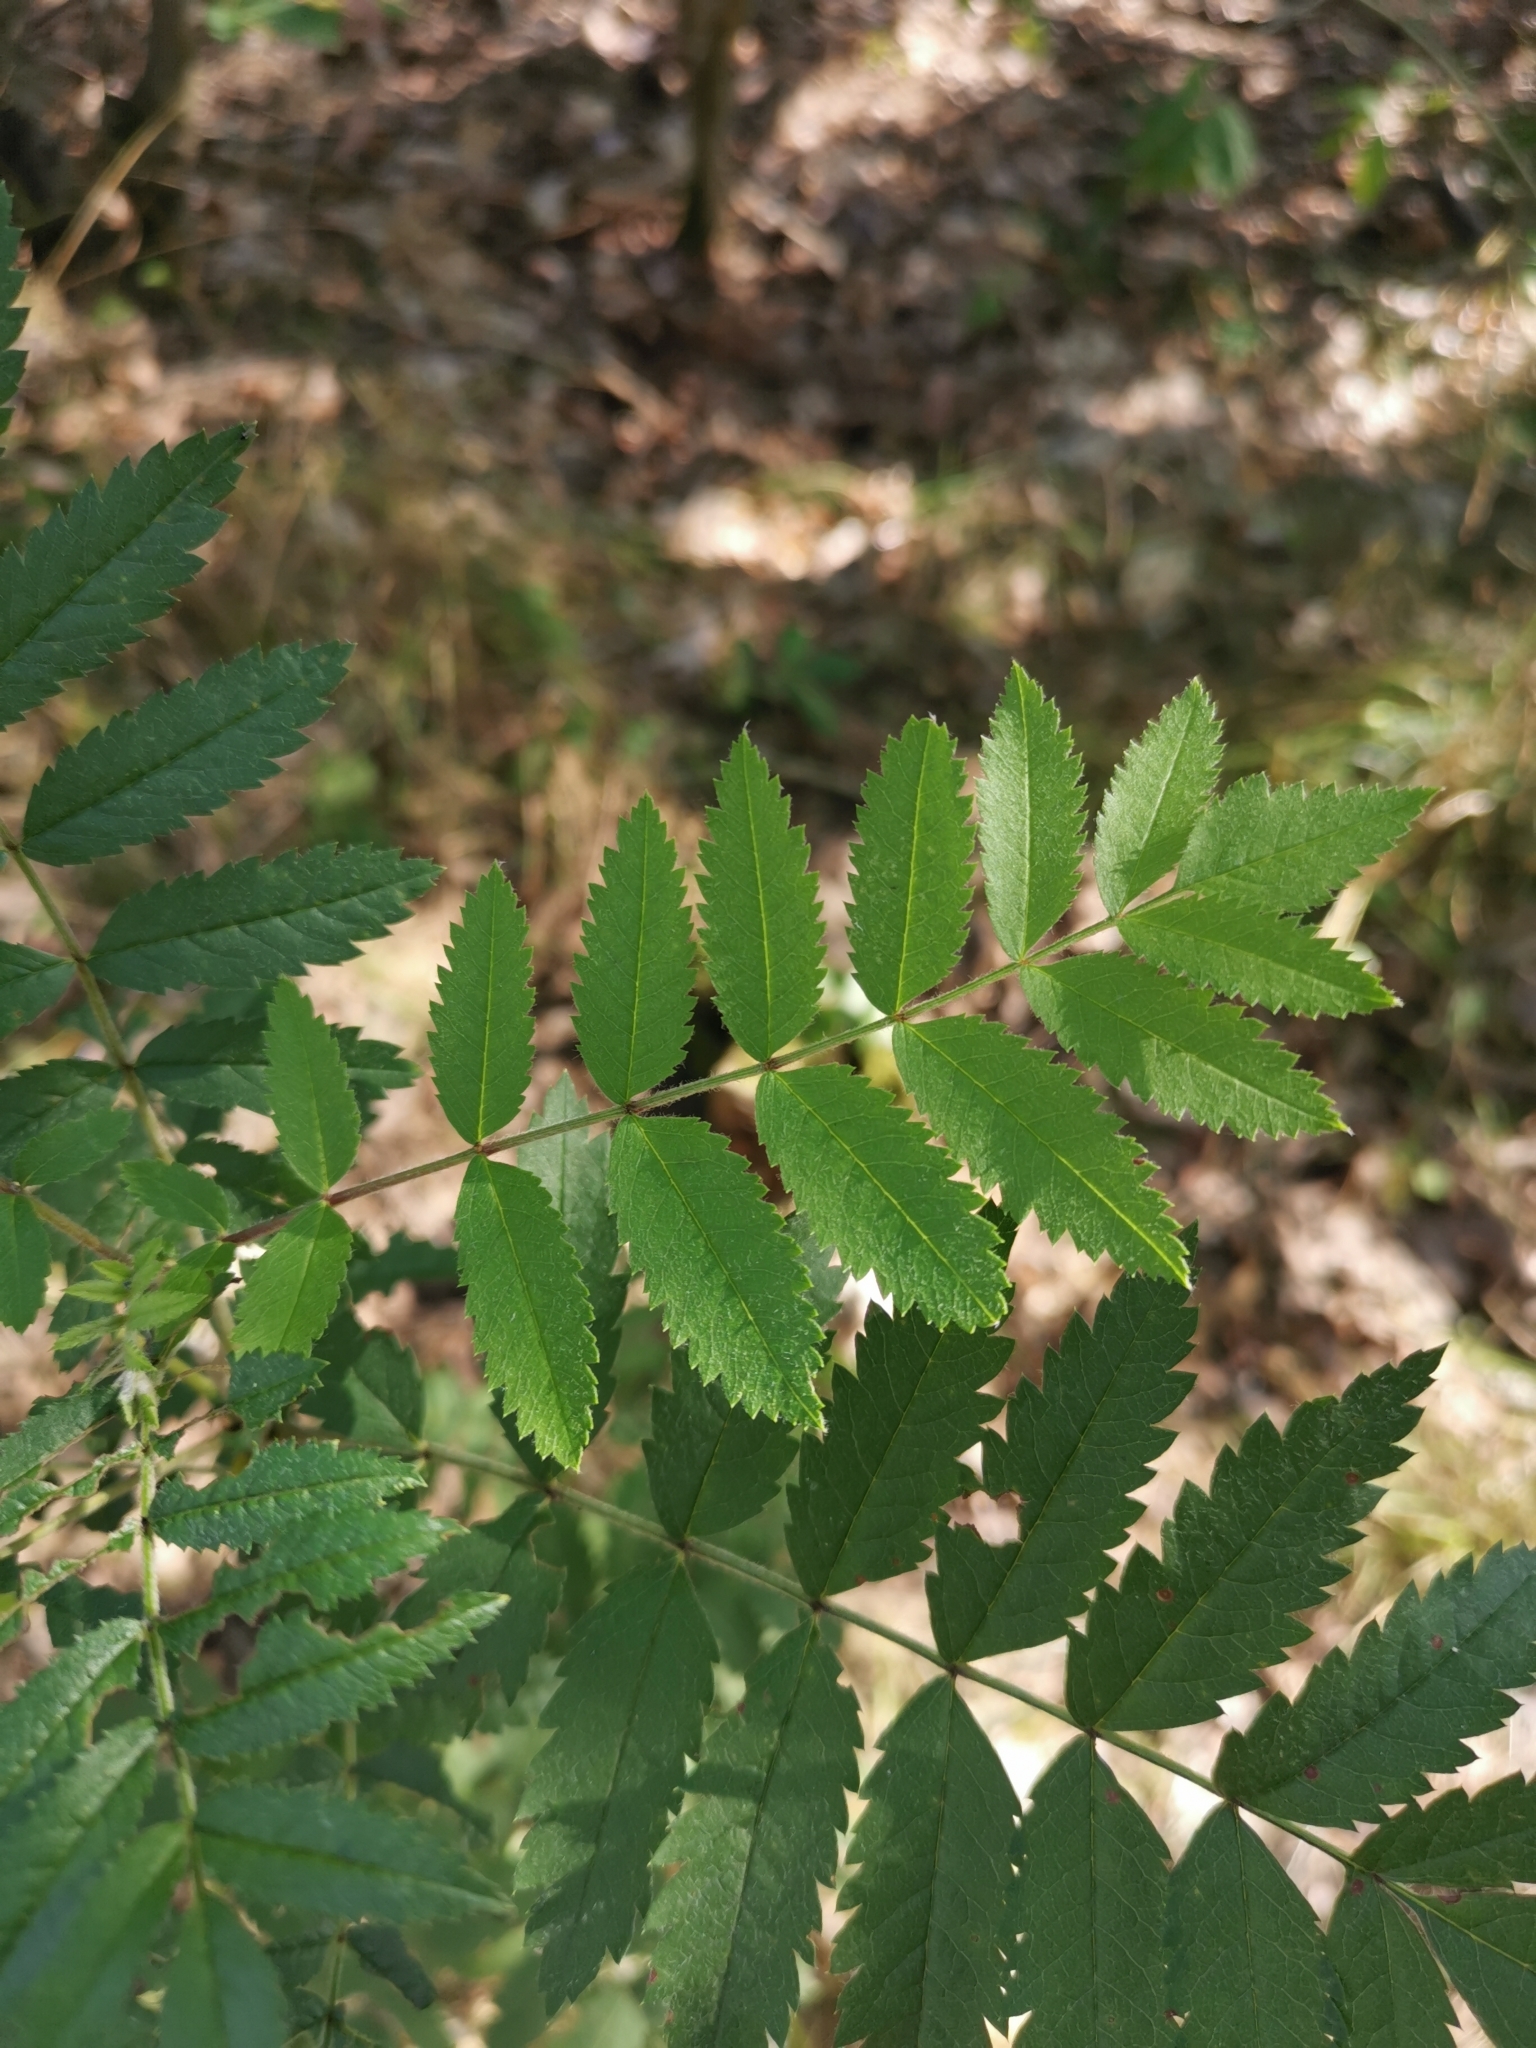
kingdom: Plantae
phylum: Tracheophyta
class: Magnoliopsida
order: Rosales
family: Rosaceae
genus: Sorbus
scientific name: Sorbus aucuparia
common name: Rowan
